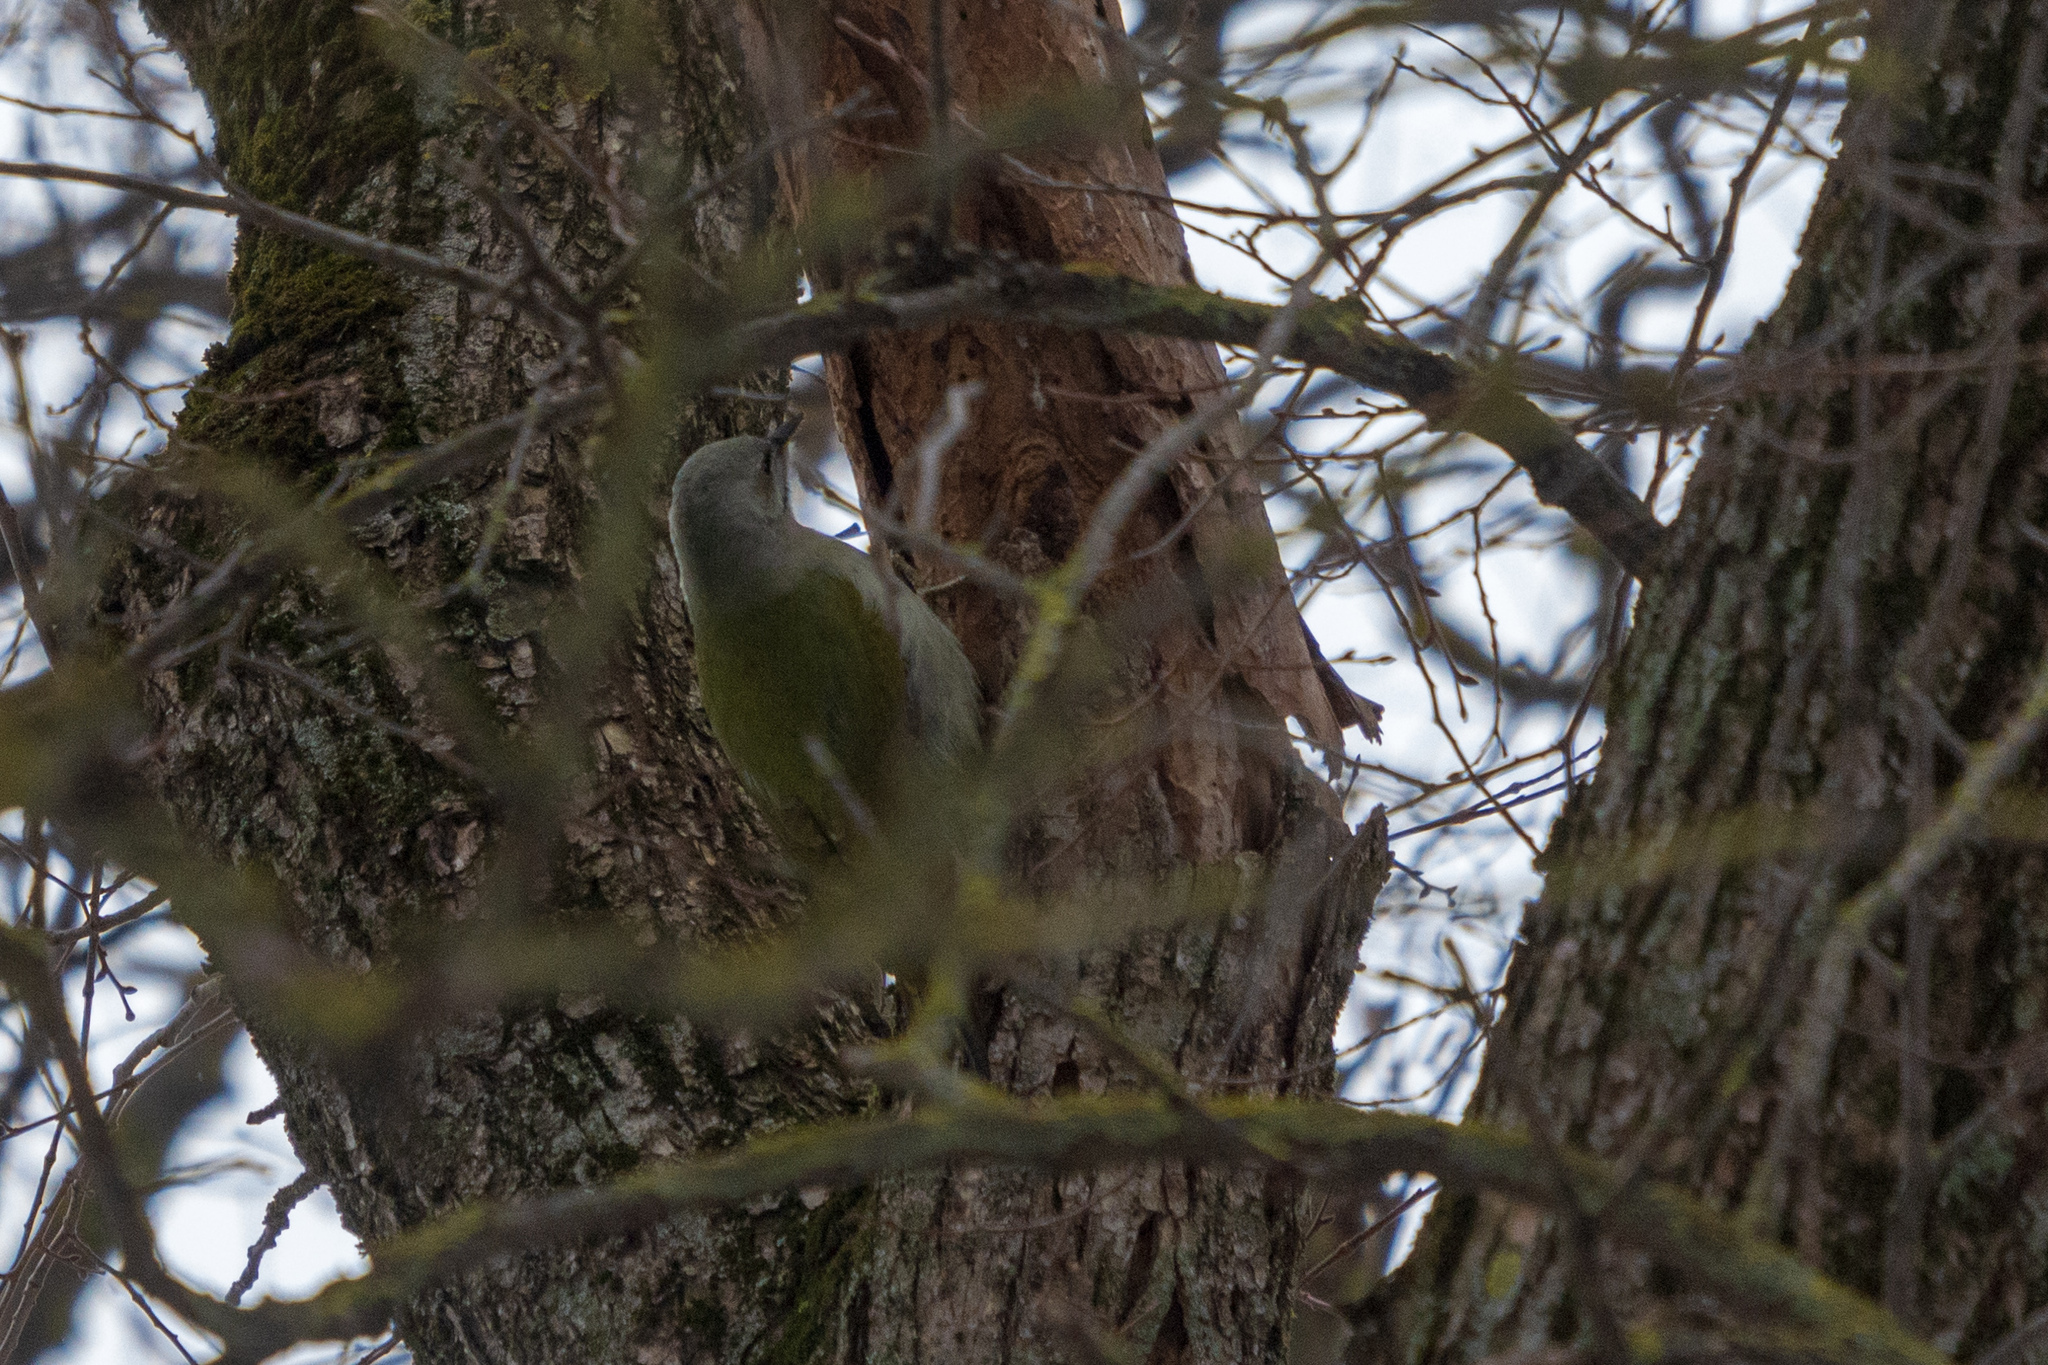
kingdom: Animalia
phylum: Chordata
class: Aves
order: Piciformes
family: Picidae
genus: Picus
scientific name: Picus canus
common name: Grey-headed woodpecker
